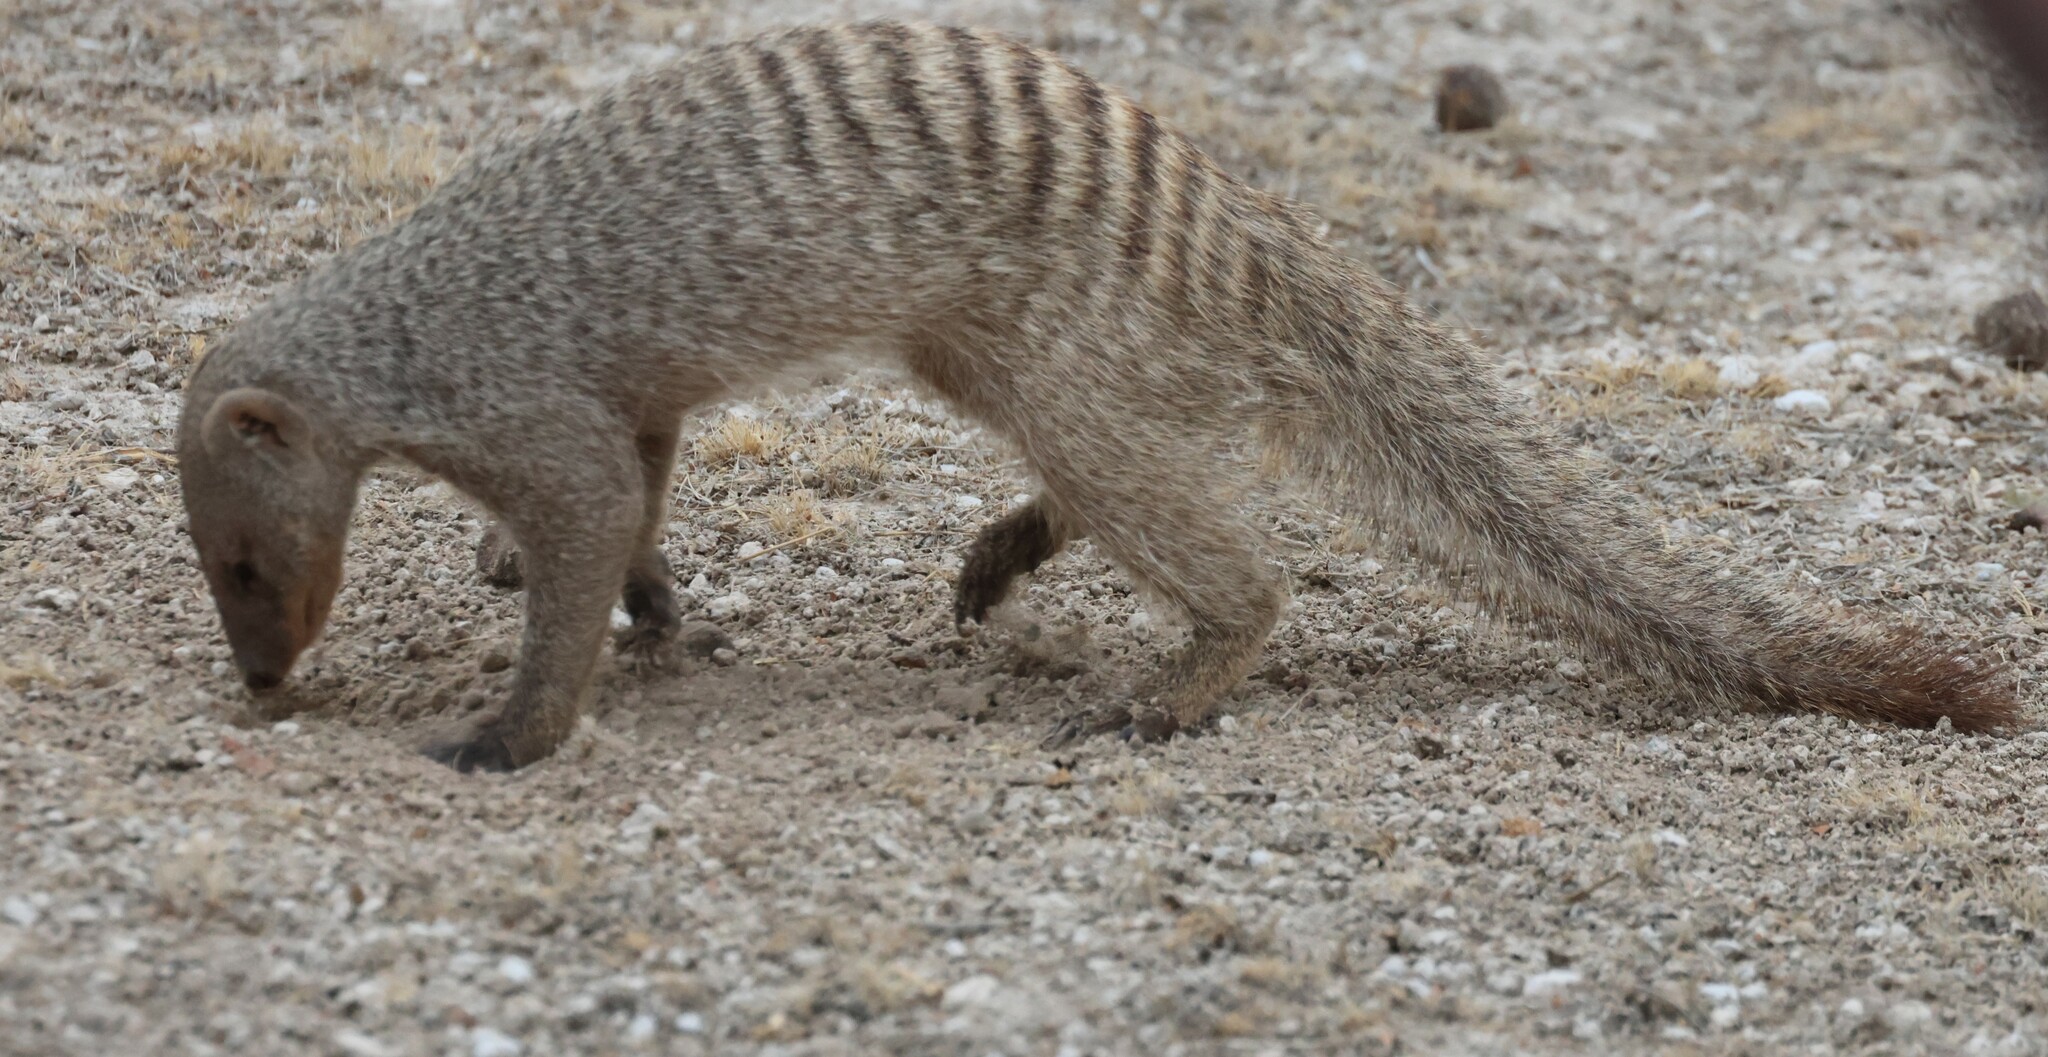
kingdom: Animalia
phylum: Chordata
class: Mammalia
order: Carnivora
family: Herpestidae
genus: Mungos
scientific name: Mungos mungo
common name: Banded mongoose
